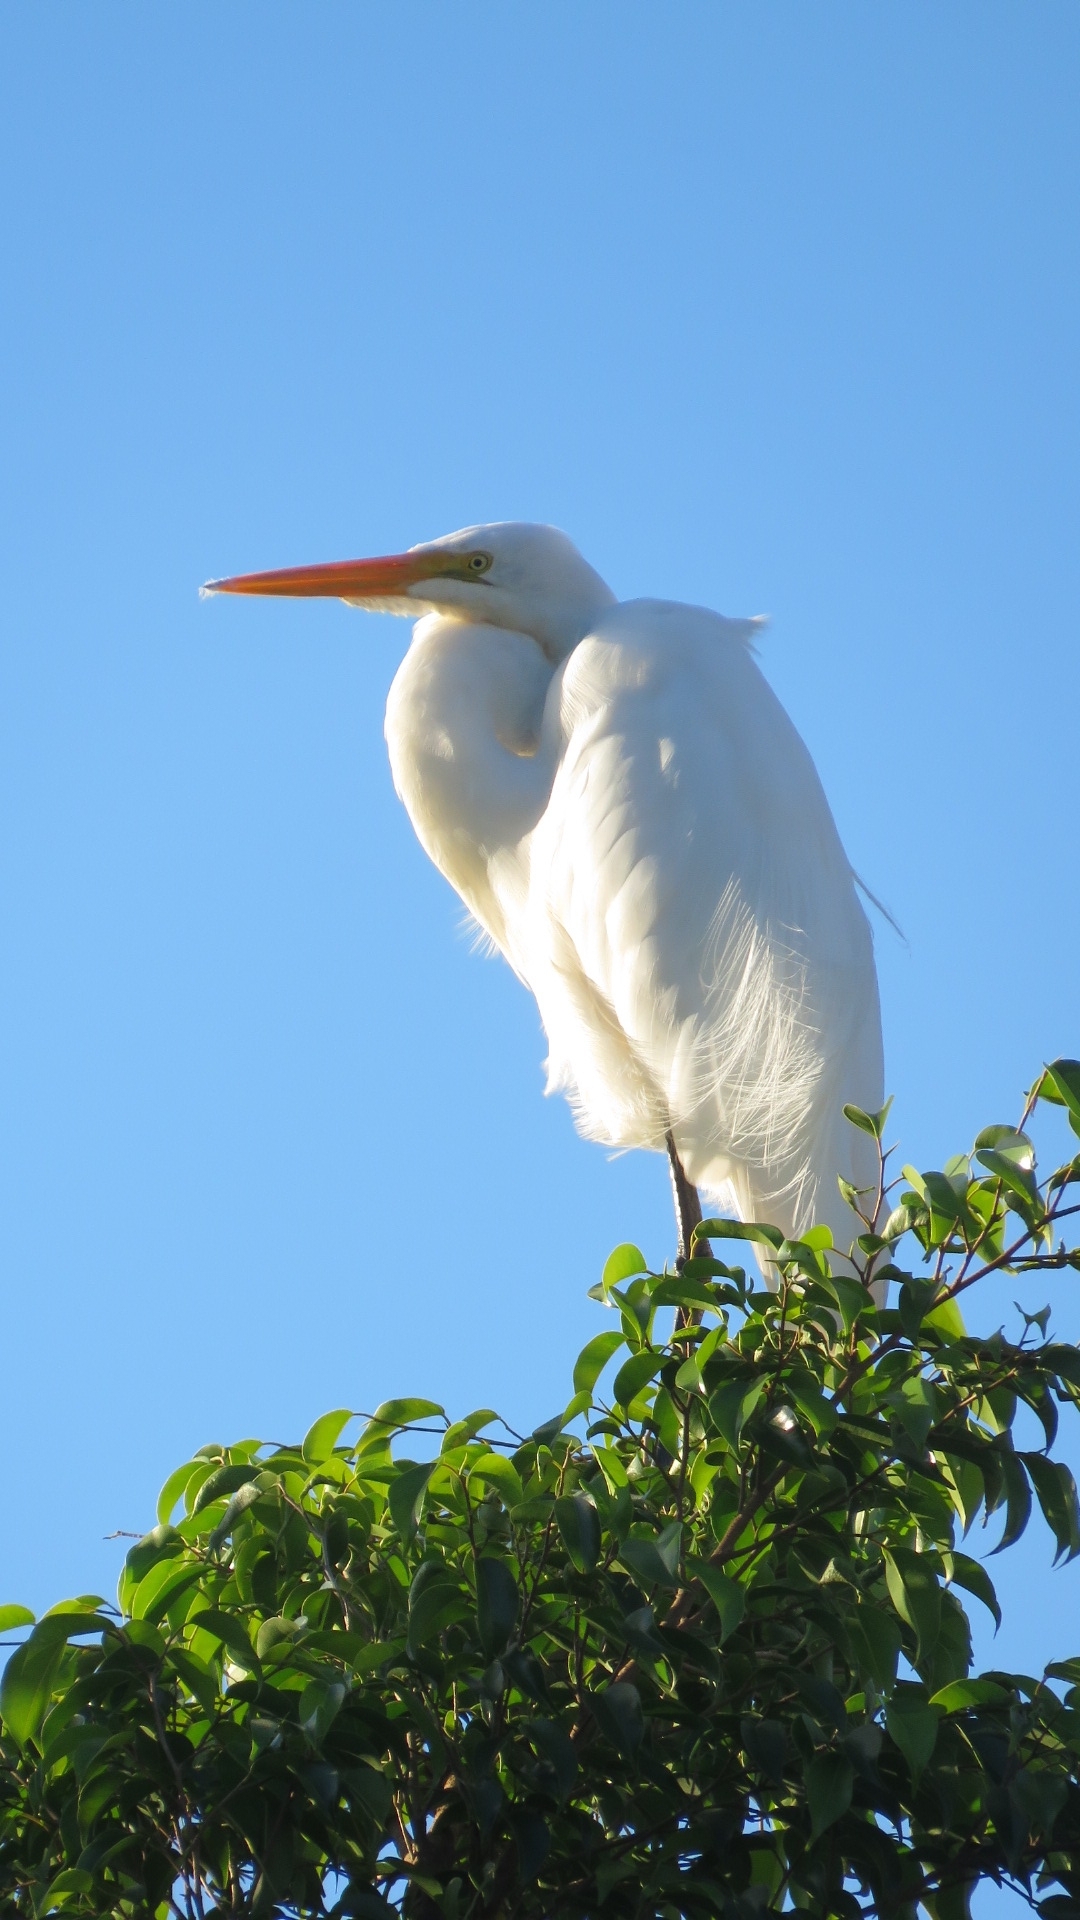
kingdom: Animalia
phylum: Chordata
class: Aves
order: Pelecaniformes
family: Ardeidae
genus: Ardea
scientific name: Ardea alba
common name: Great egret
